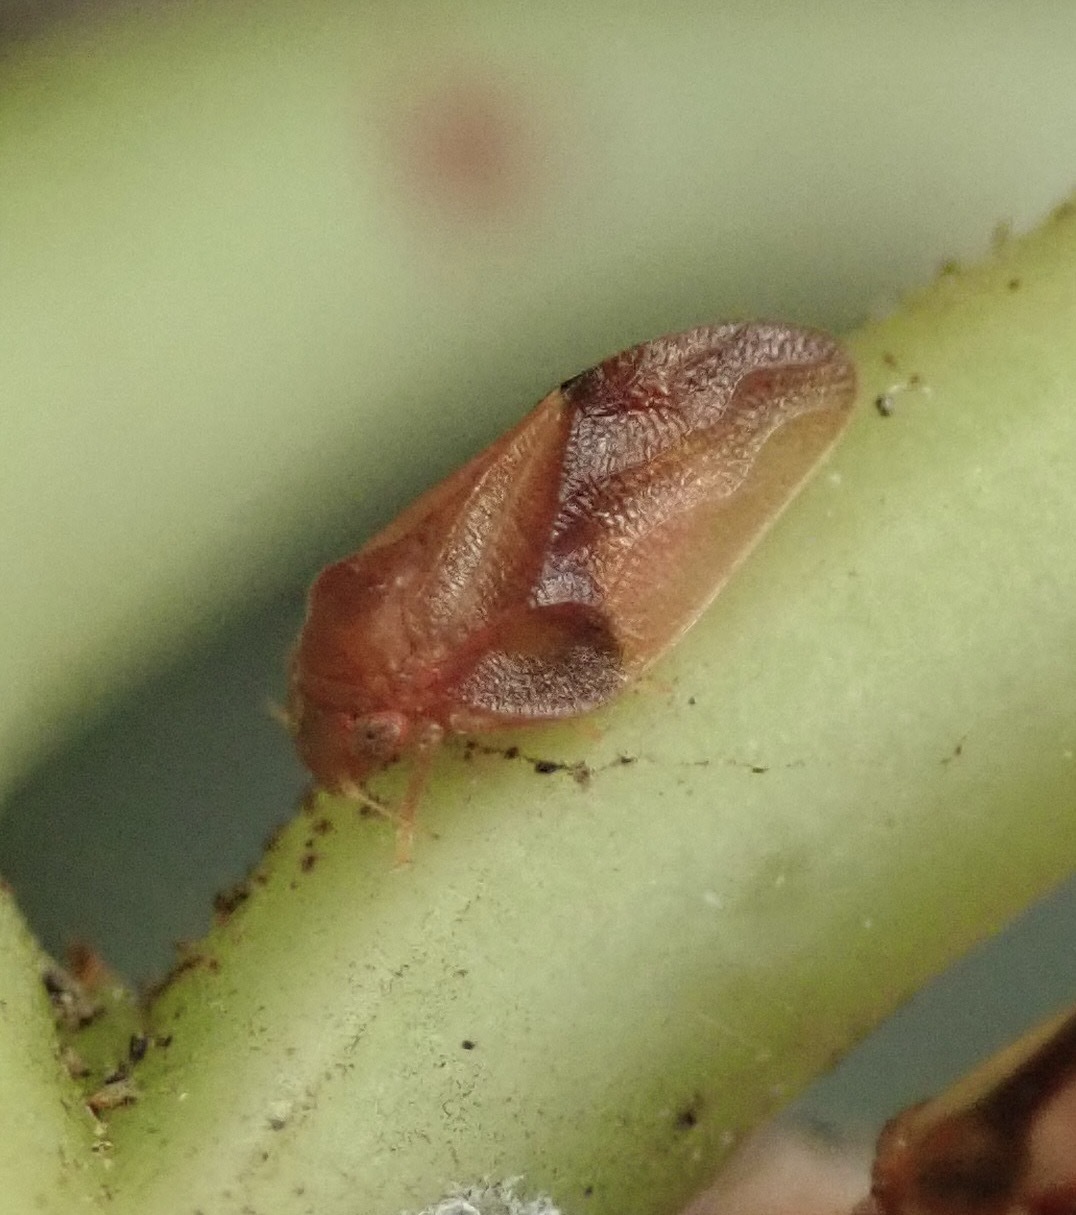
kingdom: Animalia
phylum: Arthropoda
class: Insecta
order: Hemiptera
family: Liviidae
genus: Neophyllura
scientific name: Neophyllura arbuti
